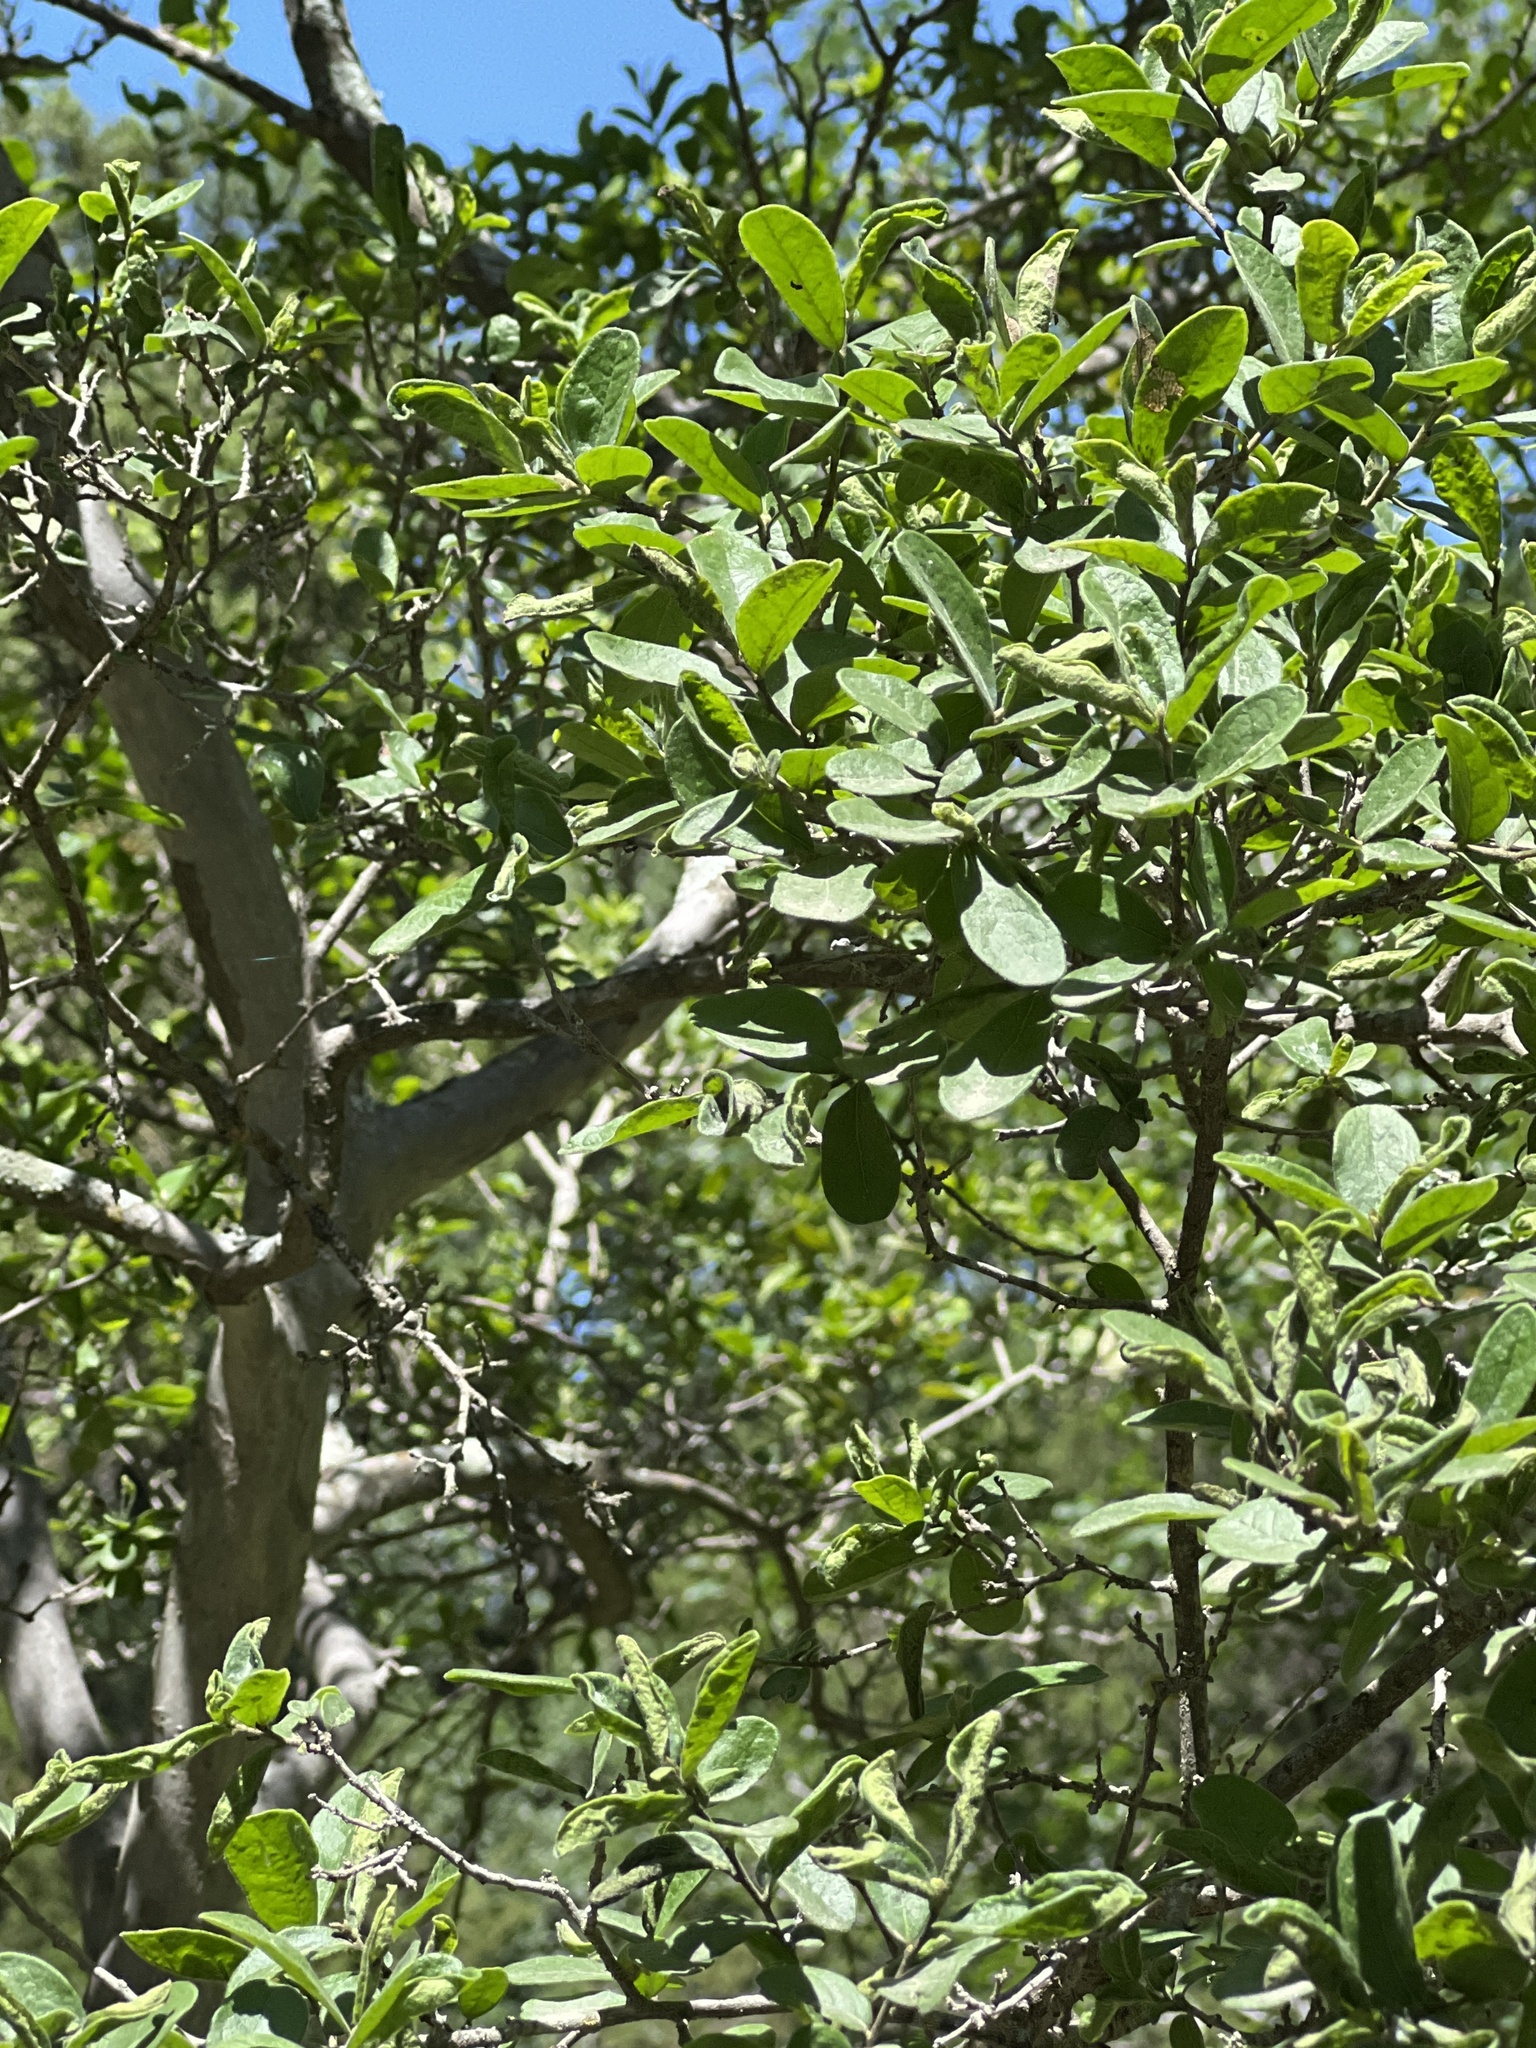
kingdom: Plantae
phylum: Tracheophyta
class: Magnoliopsida
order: Ericales
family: Ebenaceae
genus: Diospyros
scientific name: Diospyros texana
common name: Texas persimmon
